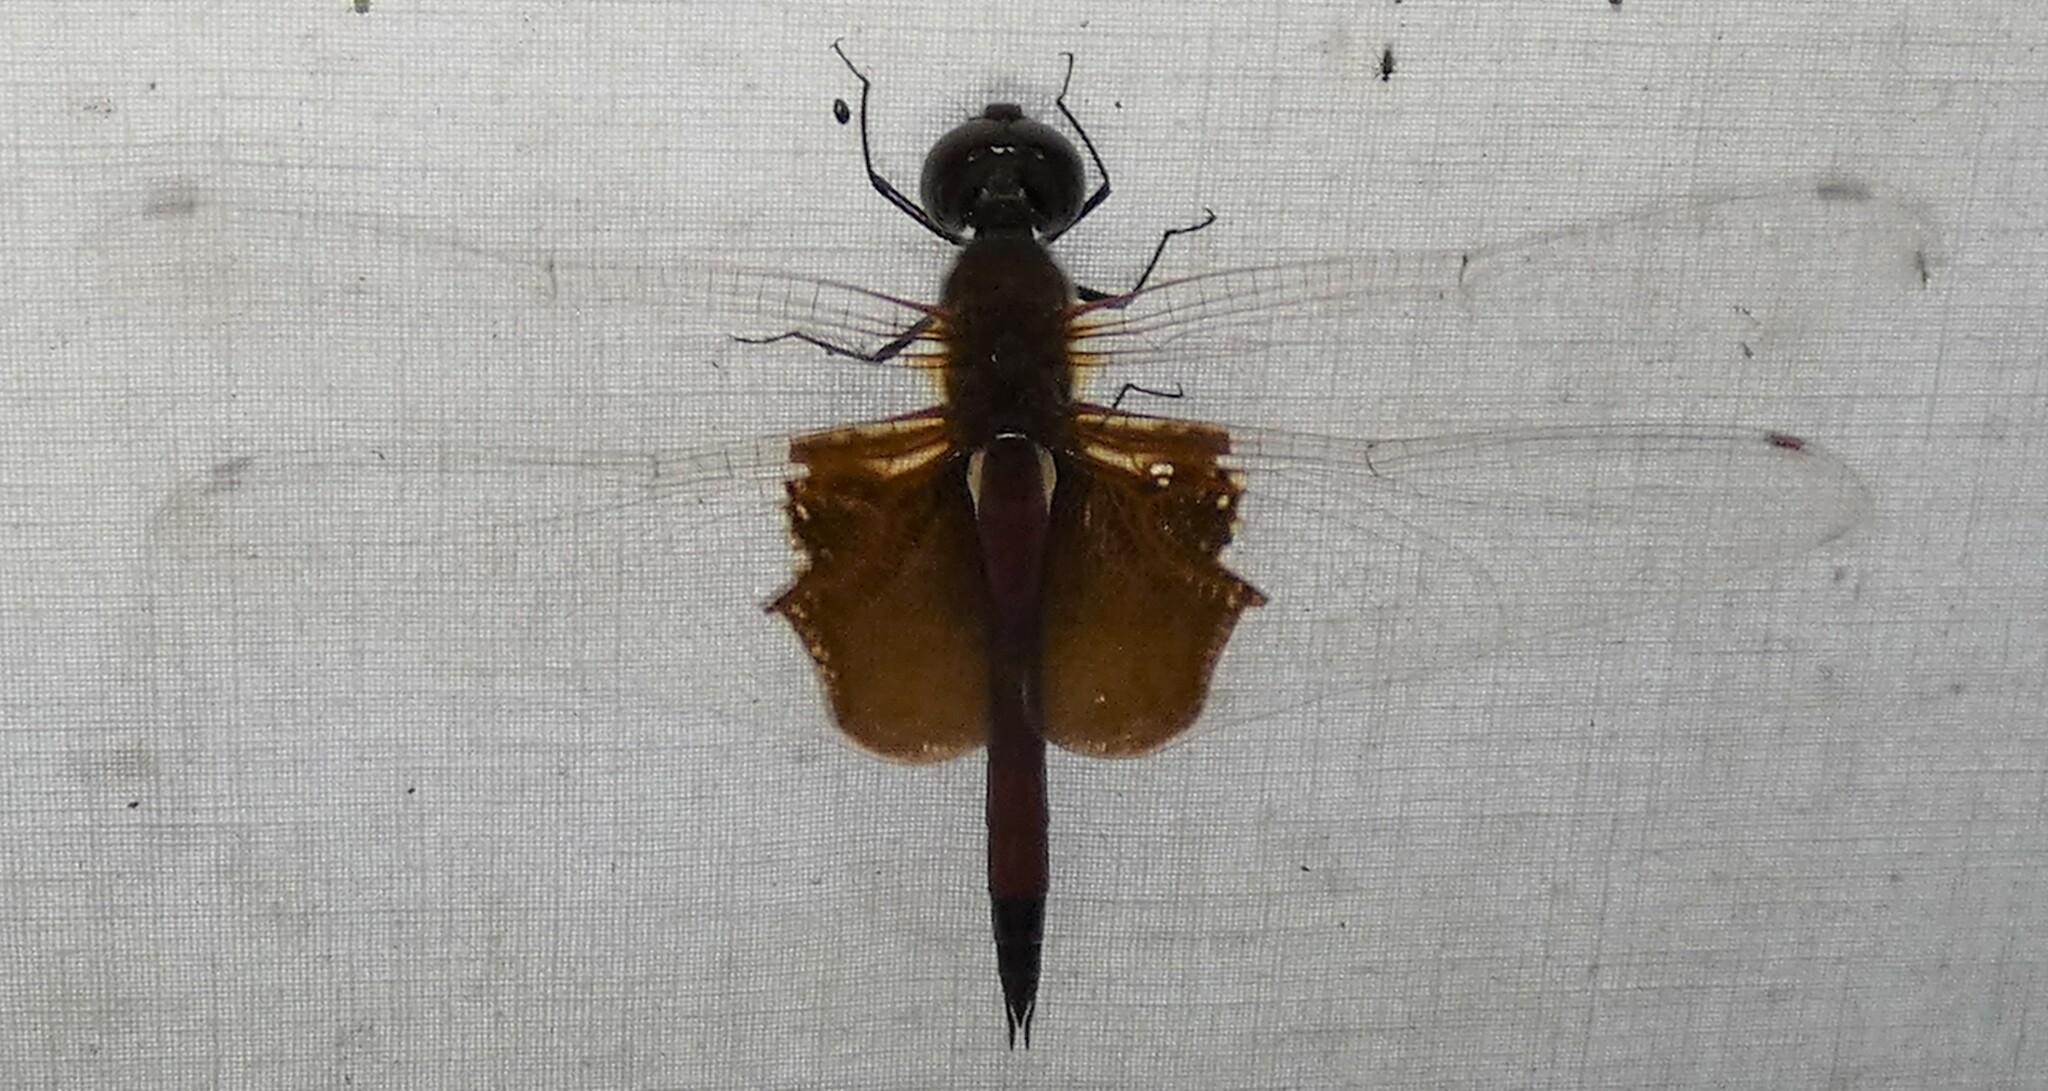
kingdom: Animalia
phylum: Arthropoda
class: Insecta
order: Odonata
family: Libellulidae
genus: Tramea
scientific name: Tramea carolina
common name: Carolina saddlebags
